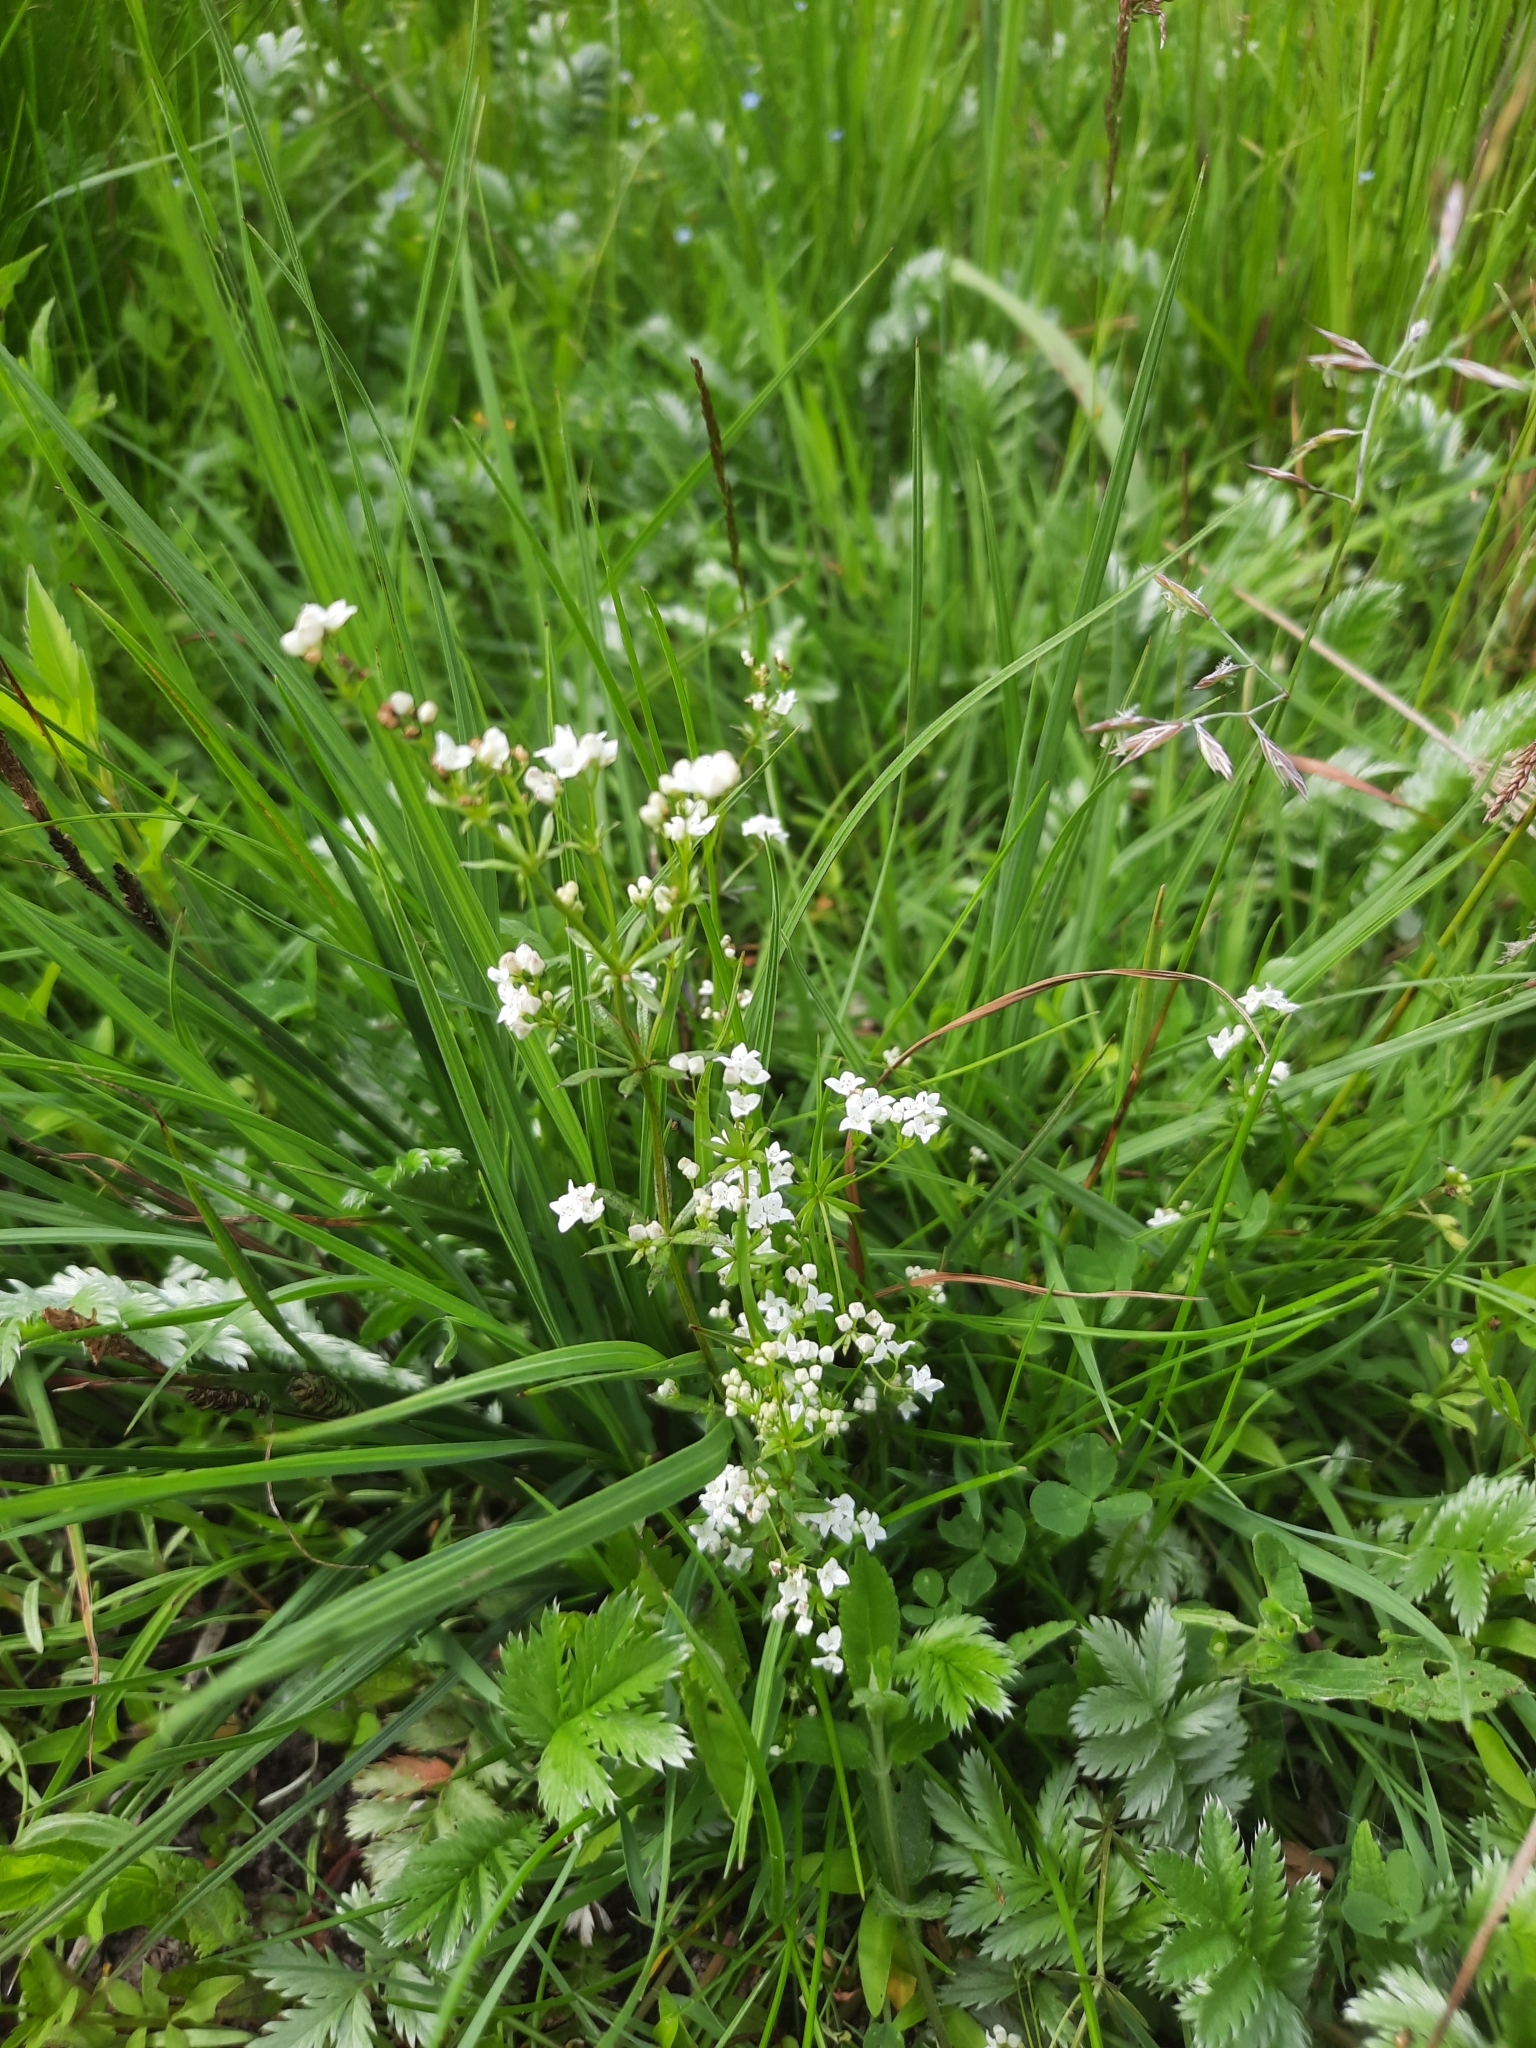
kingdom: Plantae
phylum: Tracheophyta
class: Magnoliopsida
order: Gentianales
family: Rubiaceae
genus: Galium
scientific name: Galium uliginosum
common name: Fen bedstraw
